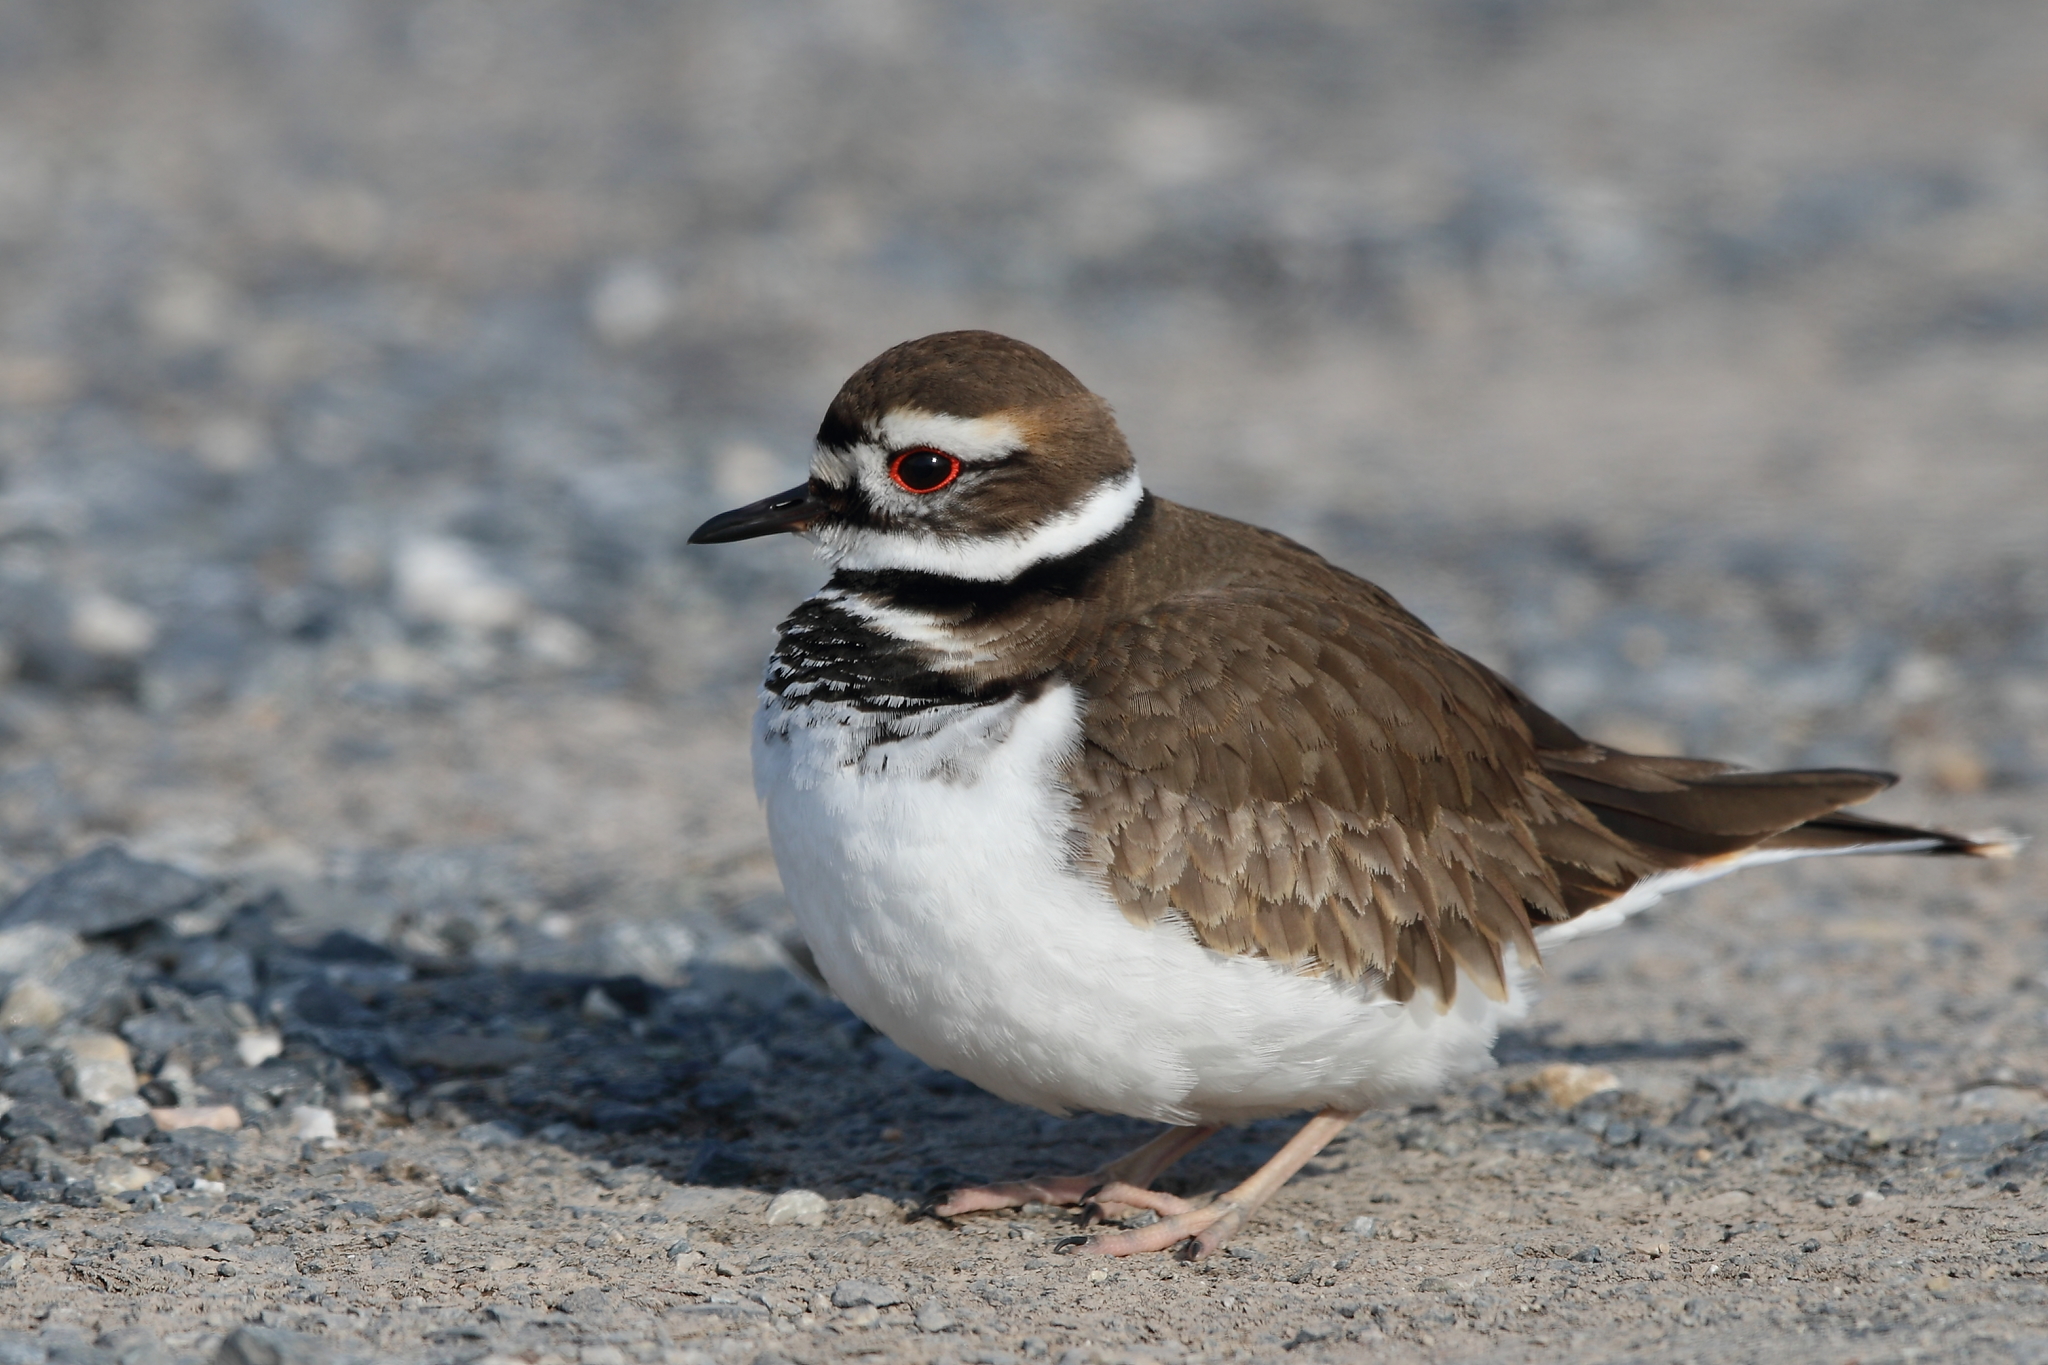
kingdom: Animalia
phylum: Chordata
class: Aves
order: Charadriiformes
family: Charadriidae
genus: Charadrius
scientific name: Charadrius vociferus
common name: Killdeer
